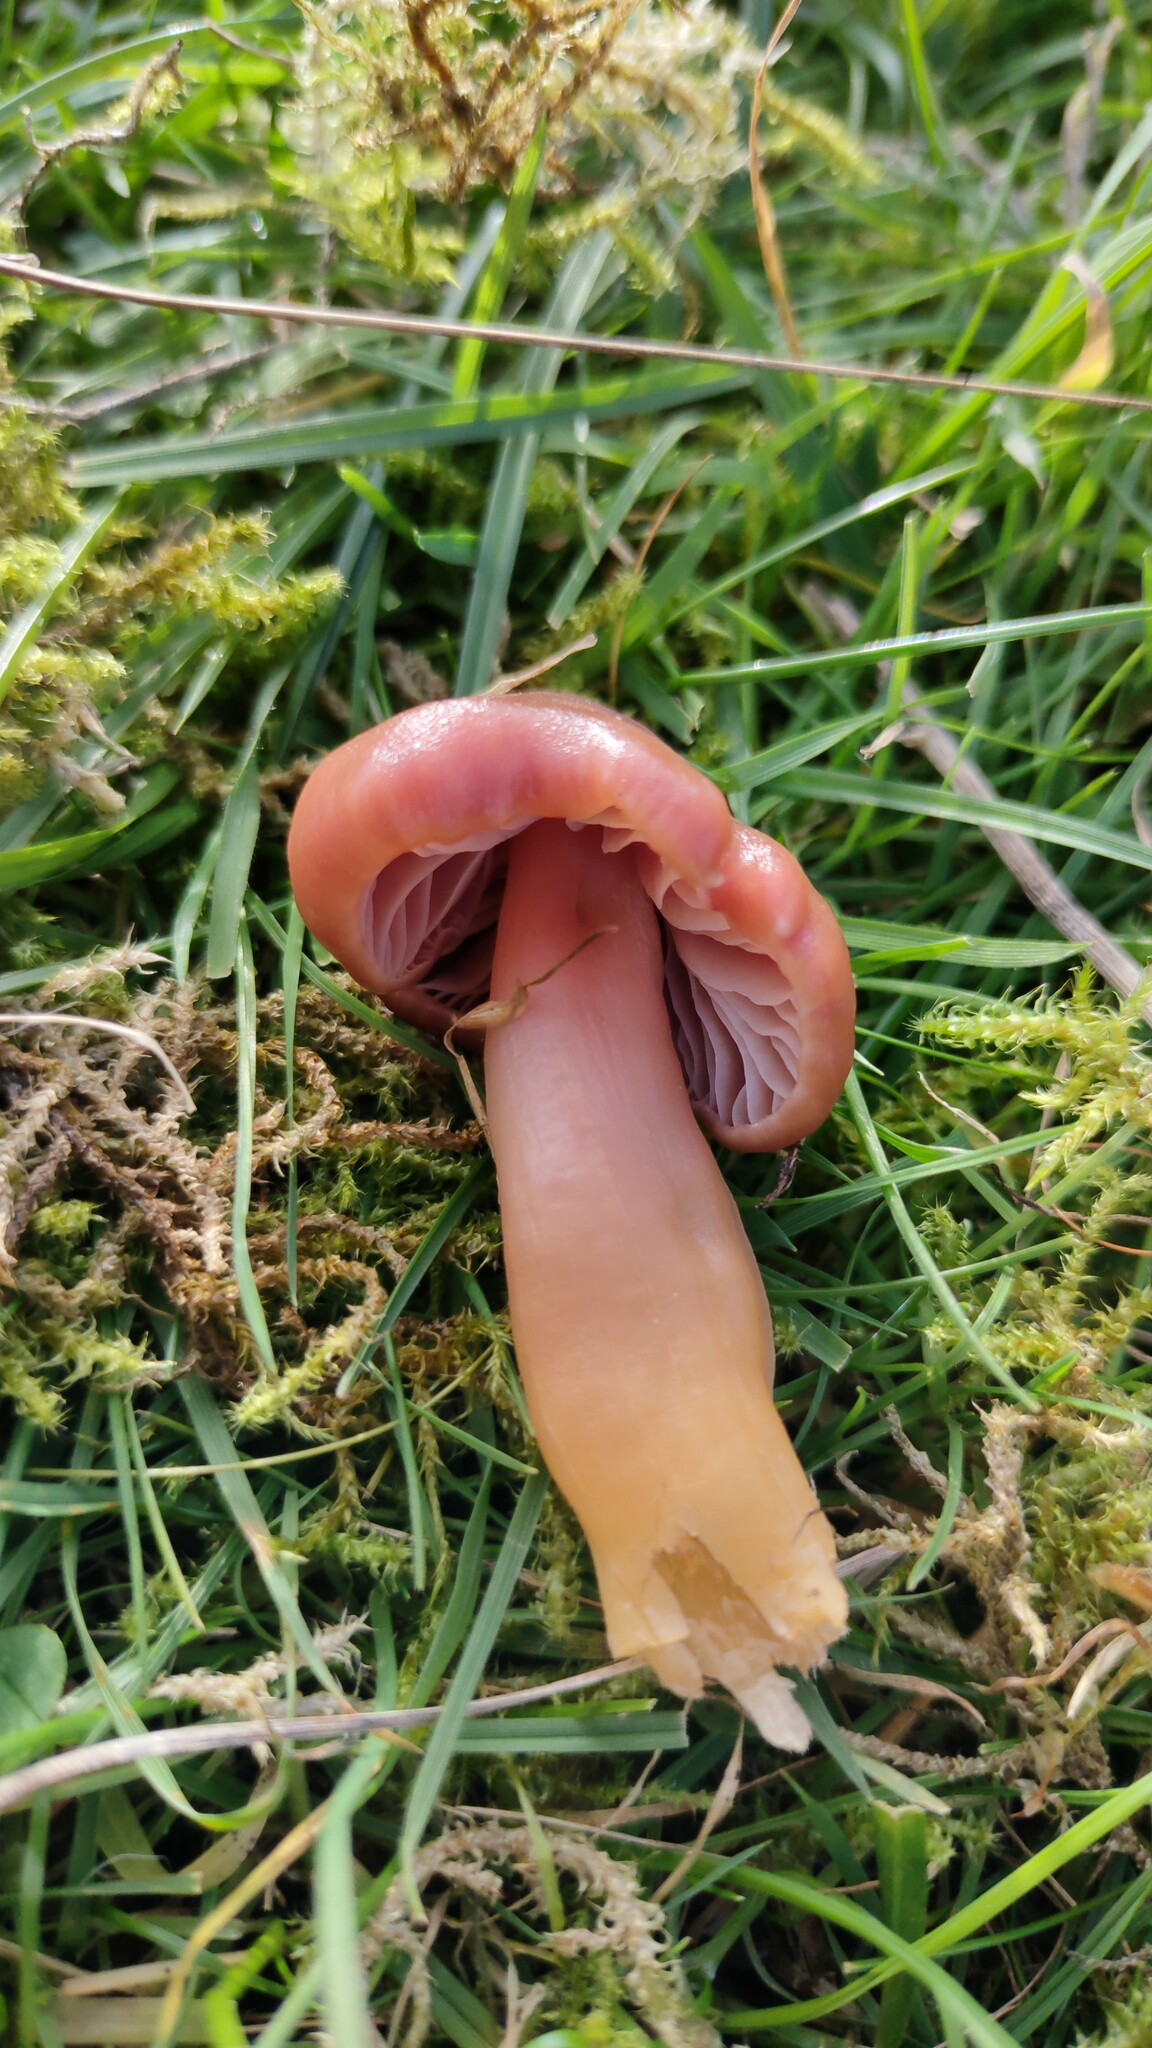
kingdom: Fungi
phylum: Basidiomycota
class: Agaricomycetes
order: Agaricales
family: Hygrophoraceae
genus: Gliophorus
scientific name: Gliophorus reginae
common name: Jubilee waxcap
